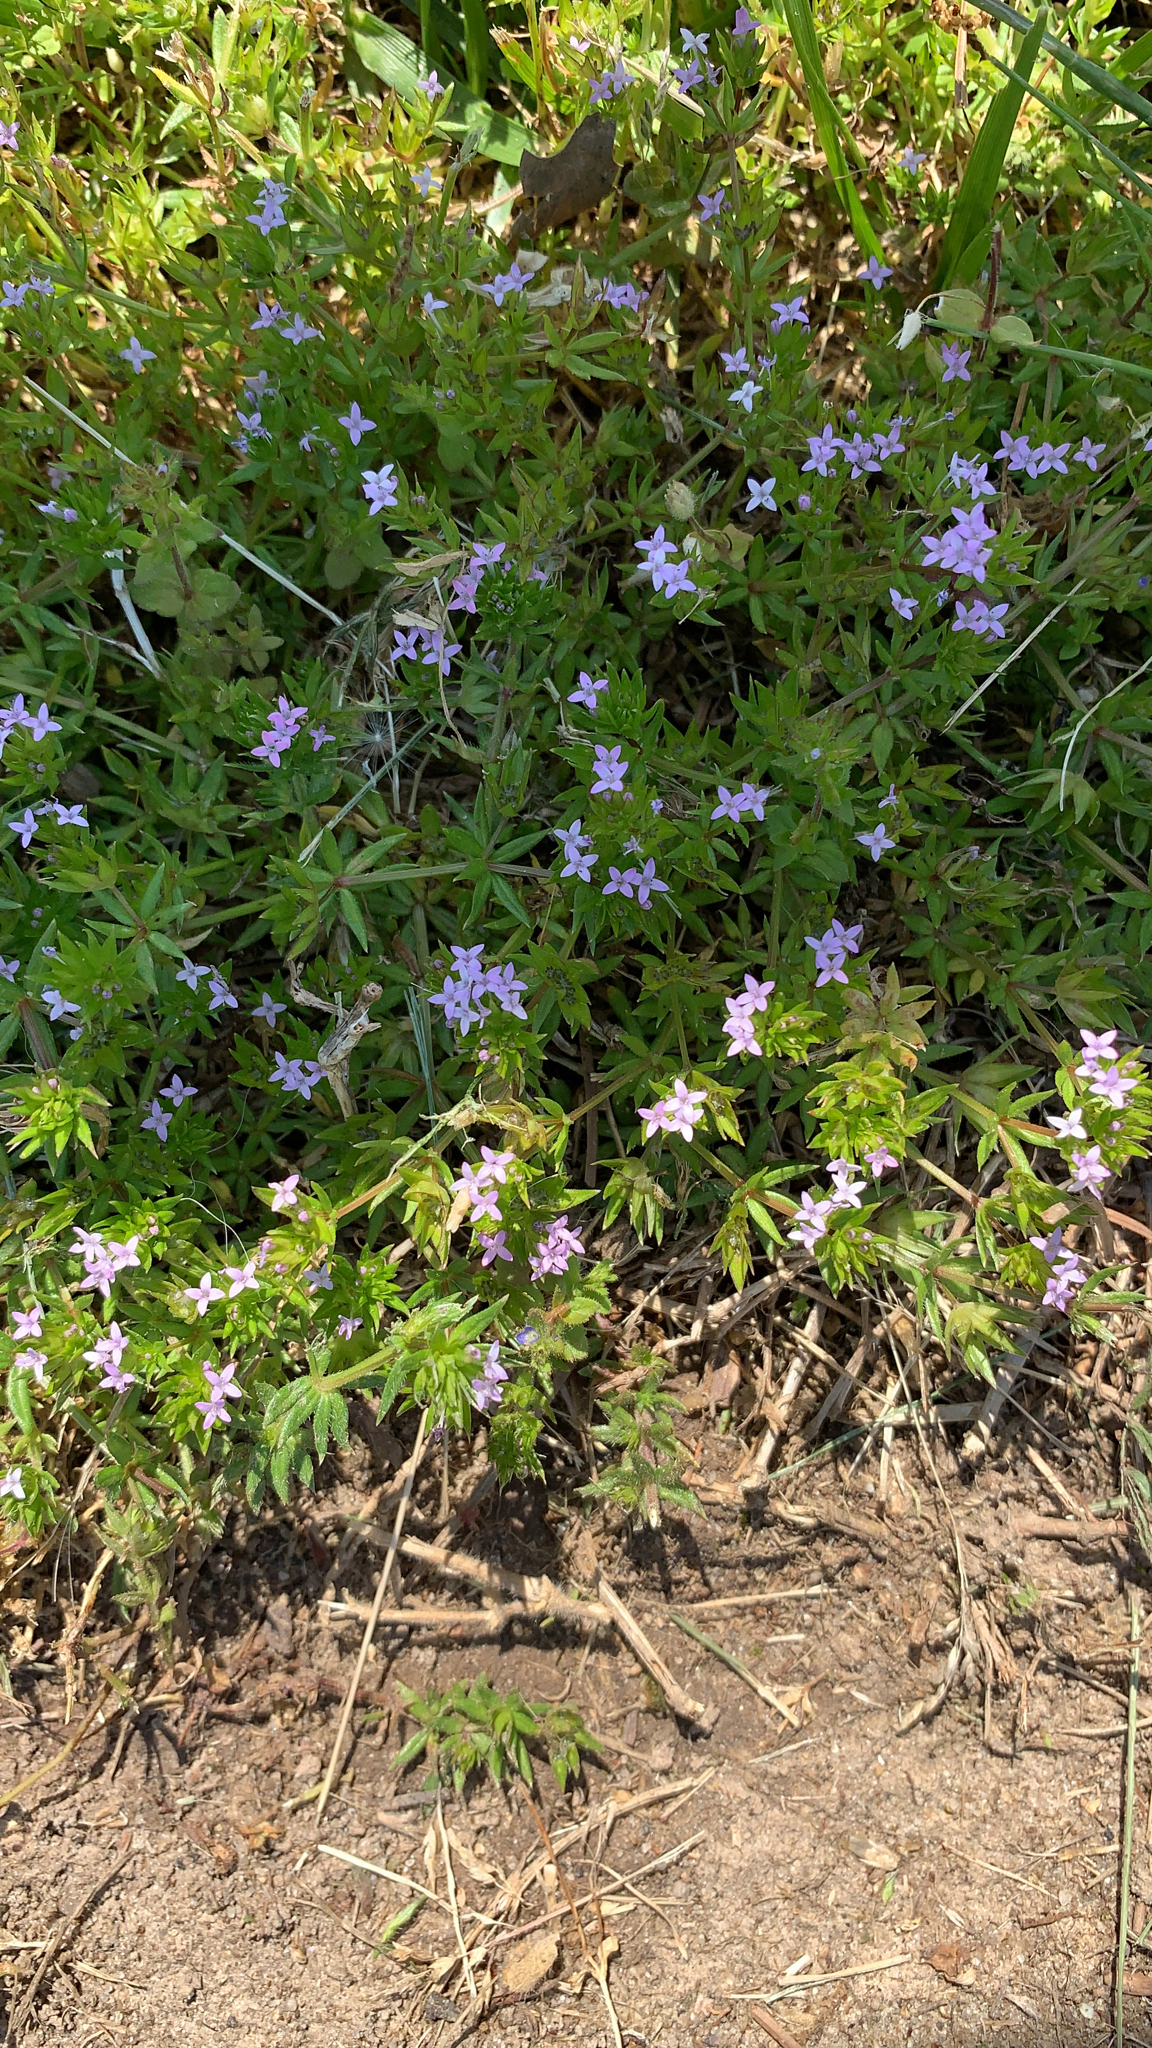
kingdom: Plantae
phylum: Tracheophyta
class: Magnoliopsida
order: Gentianales
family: Rubiaceae
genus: Sherardia
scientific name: Sherardia arvensis
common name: Field madder
